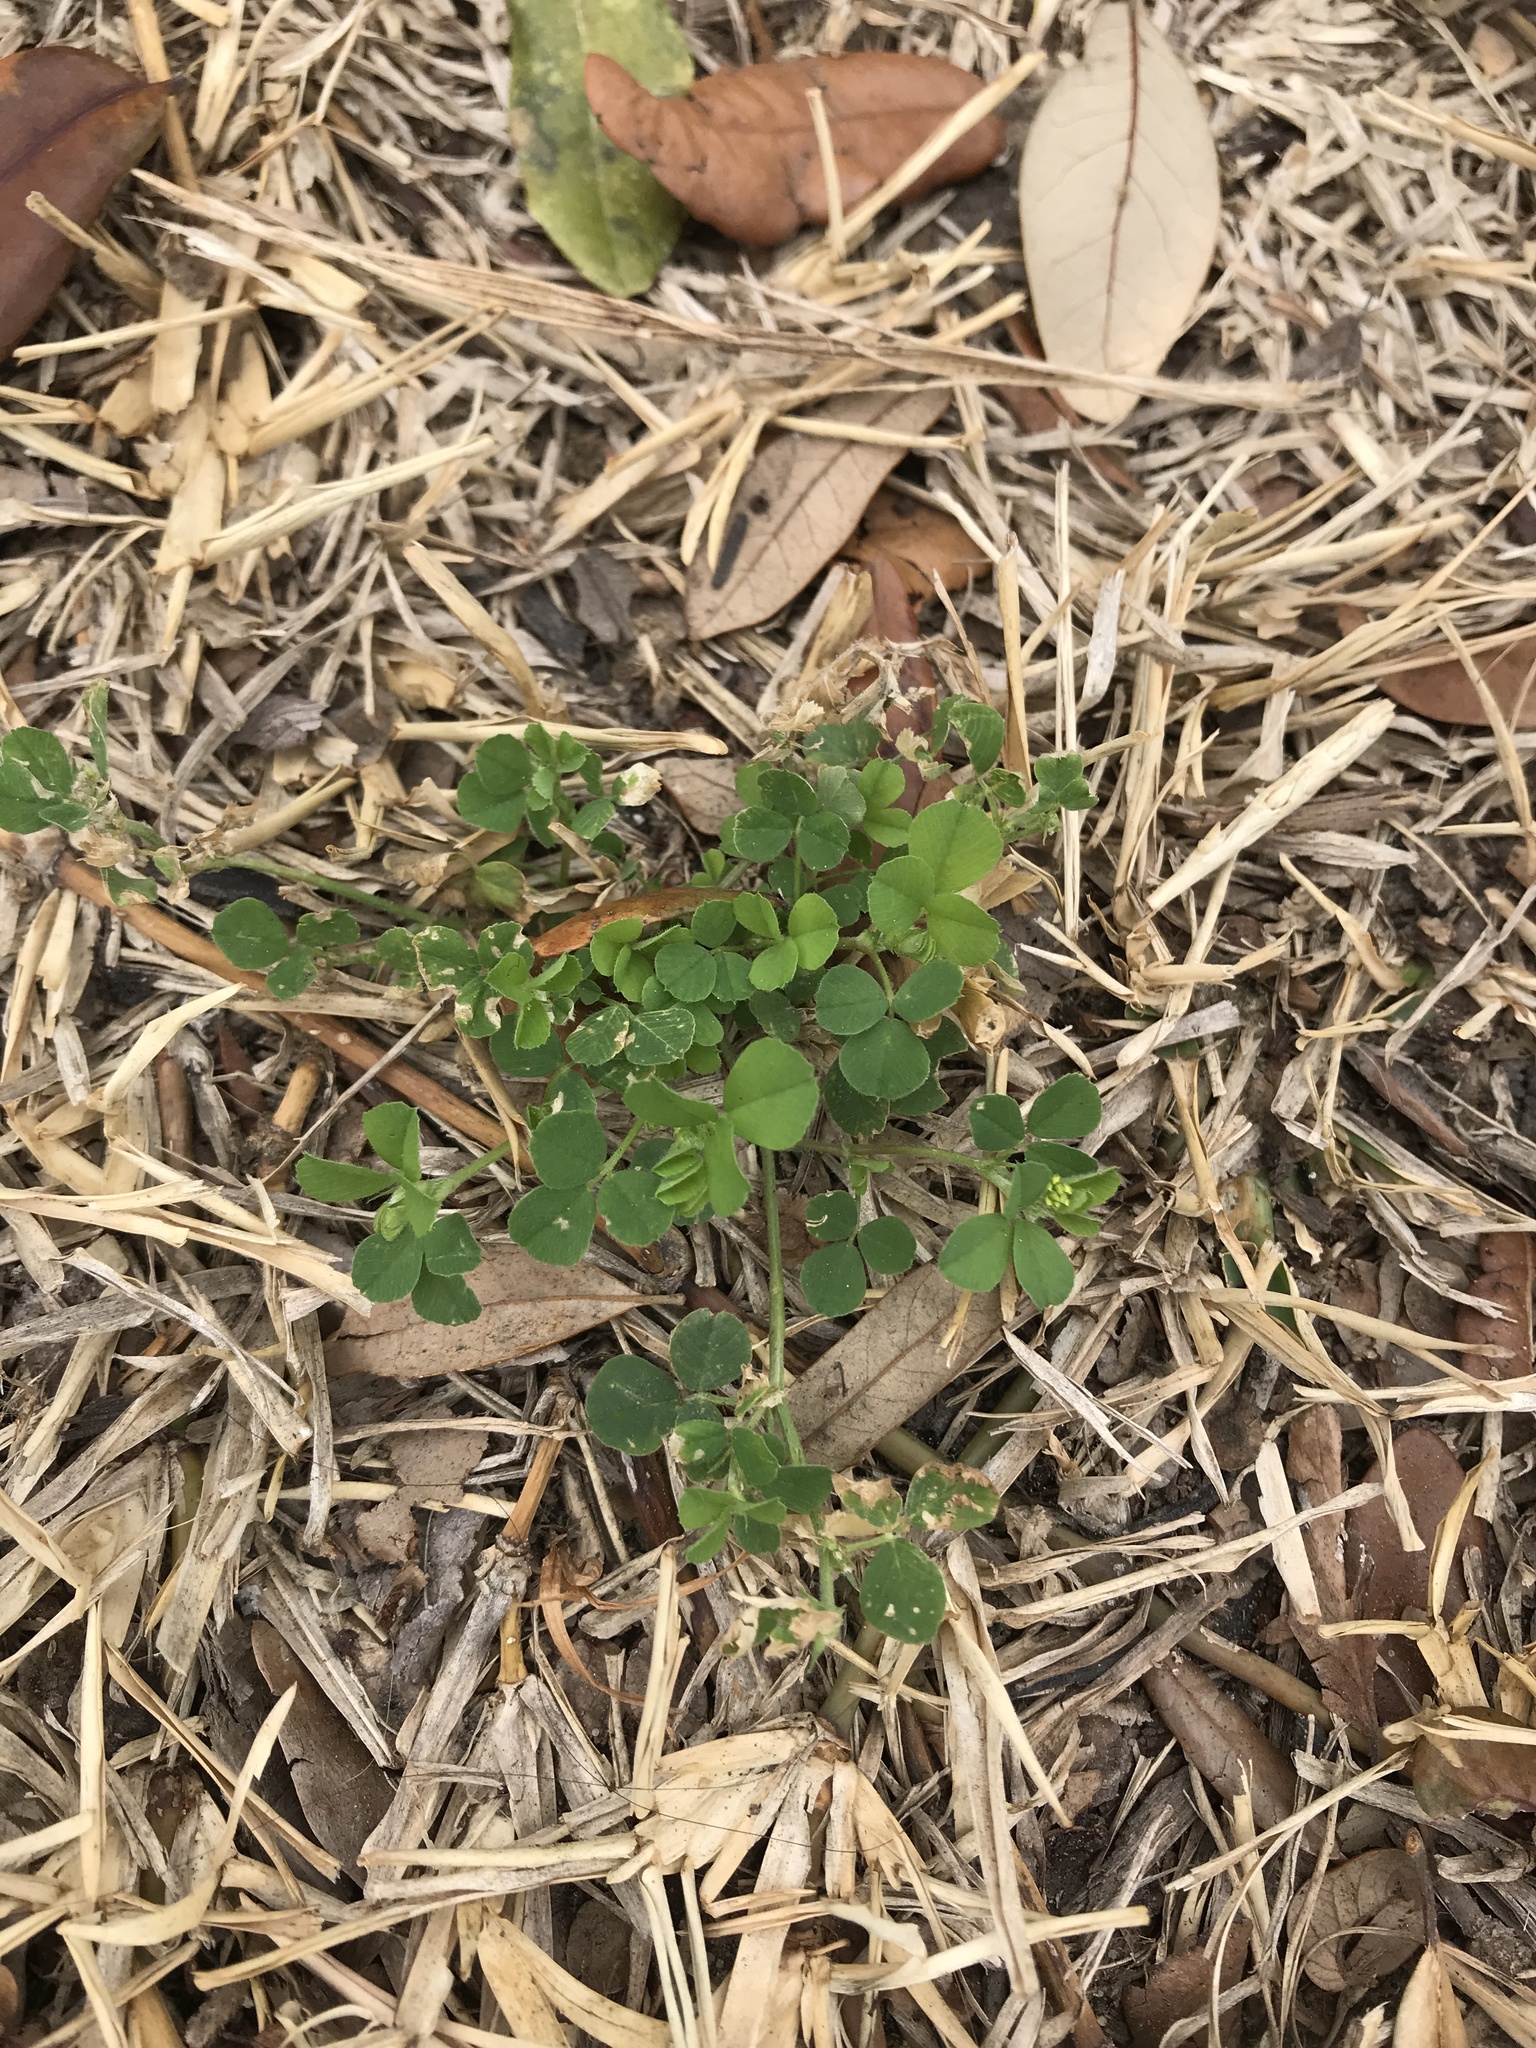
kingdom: Plantae
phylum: Tracheophyta
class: Magnoliopsida
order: Fabales
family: Fabaceae
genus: Medicago
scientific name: Medicago lupulina
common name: Black medick
